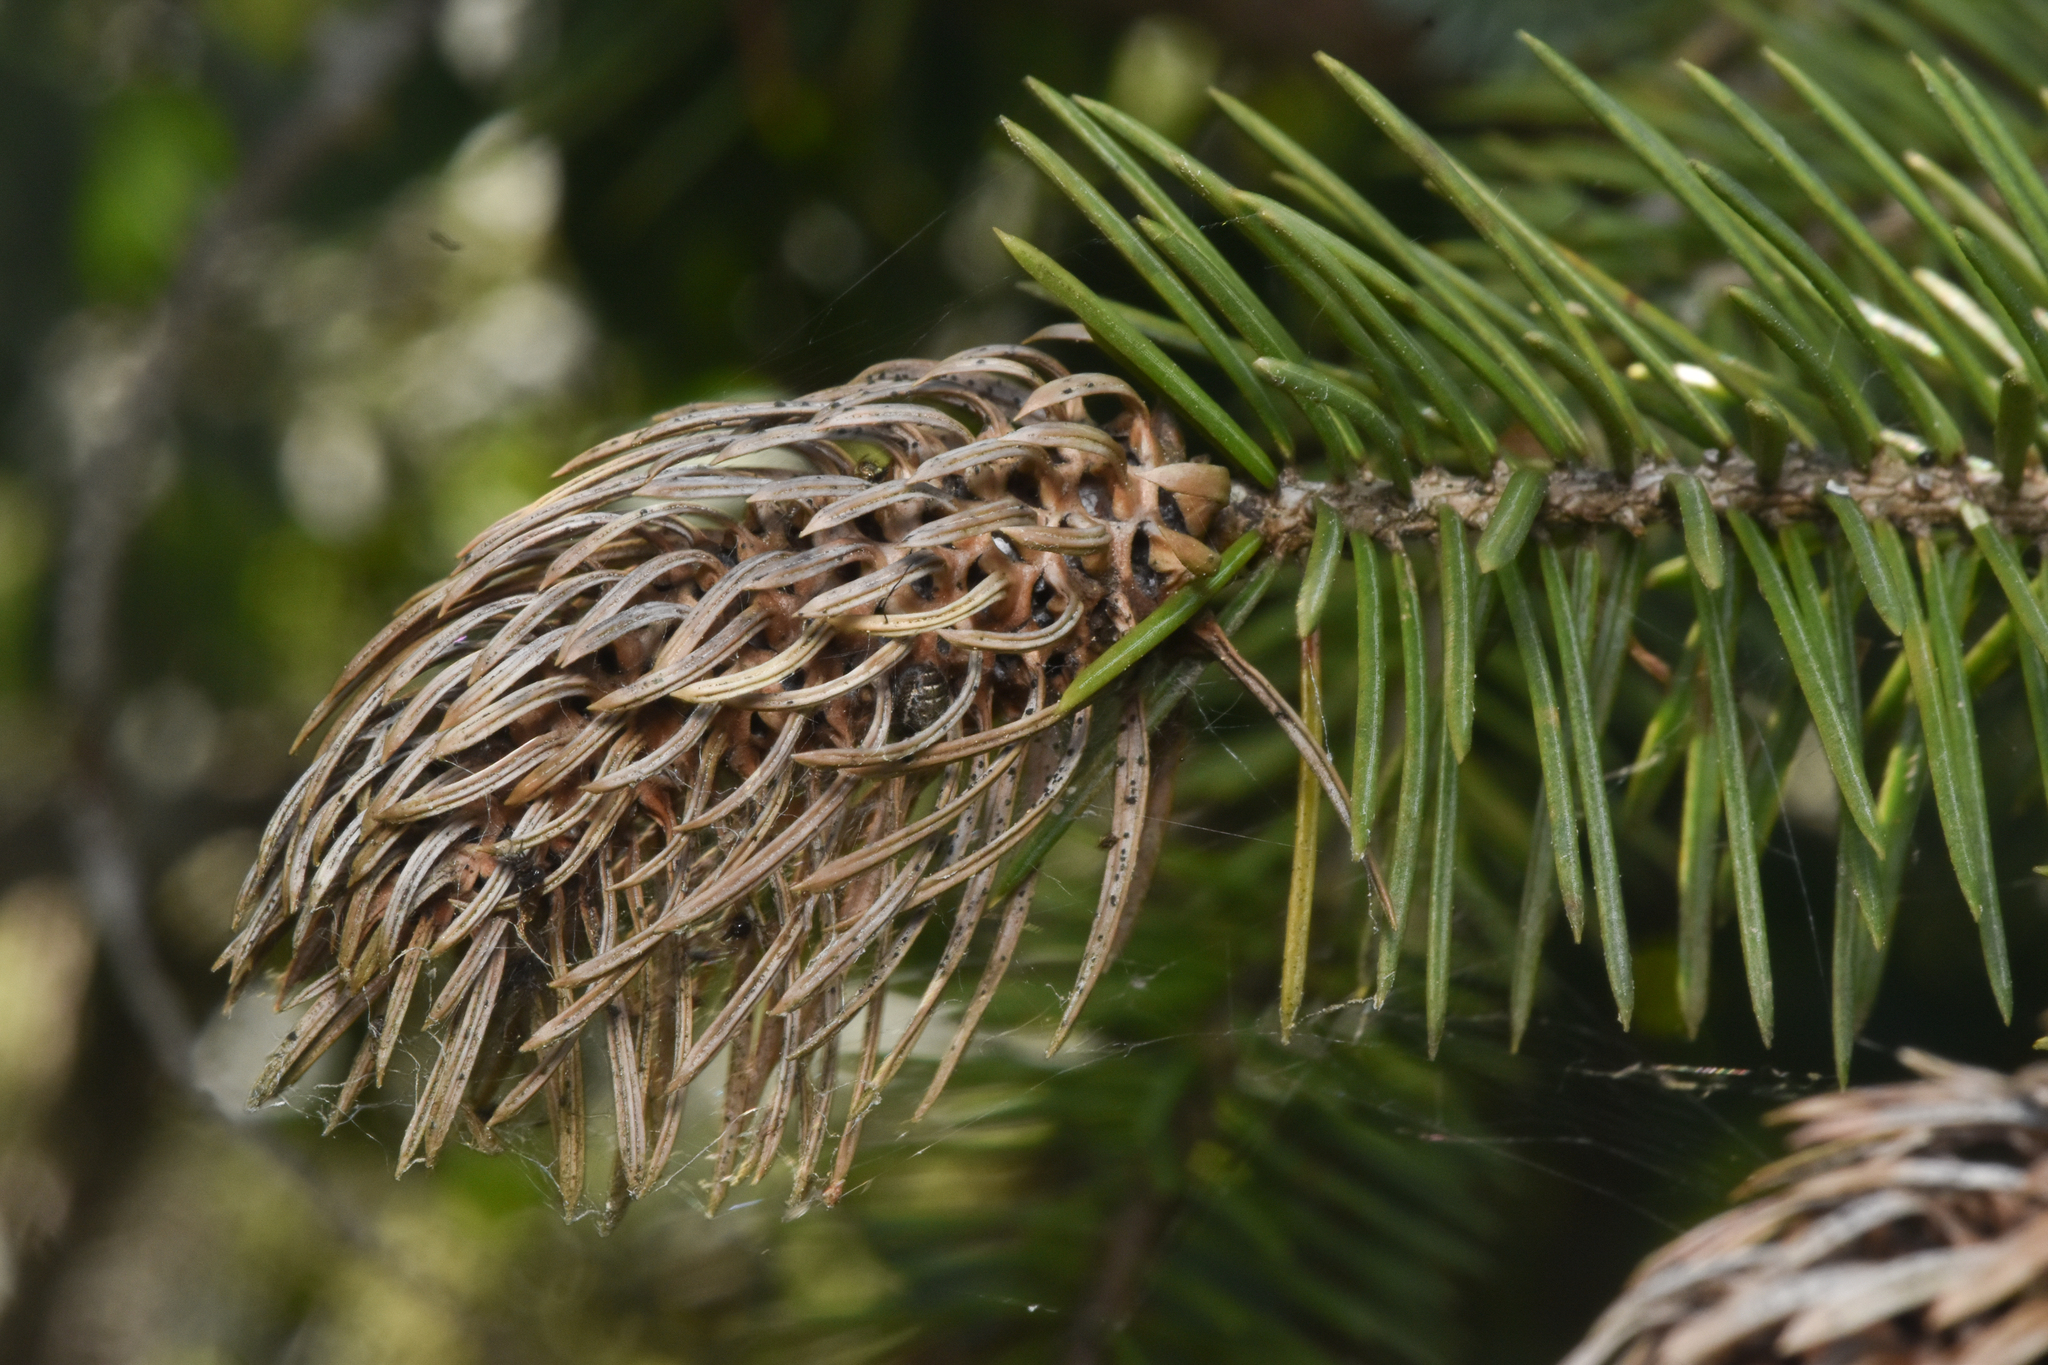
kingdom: Animalia
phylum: Arthropoda
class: Insecta
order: Hemiptera
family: Adelgidae
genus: Adelges
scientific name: Adelges cooleyi
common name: Cooley spruce gall adelgid
